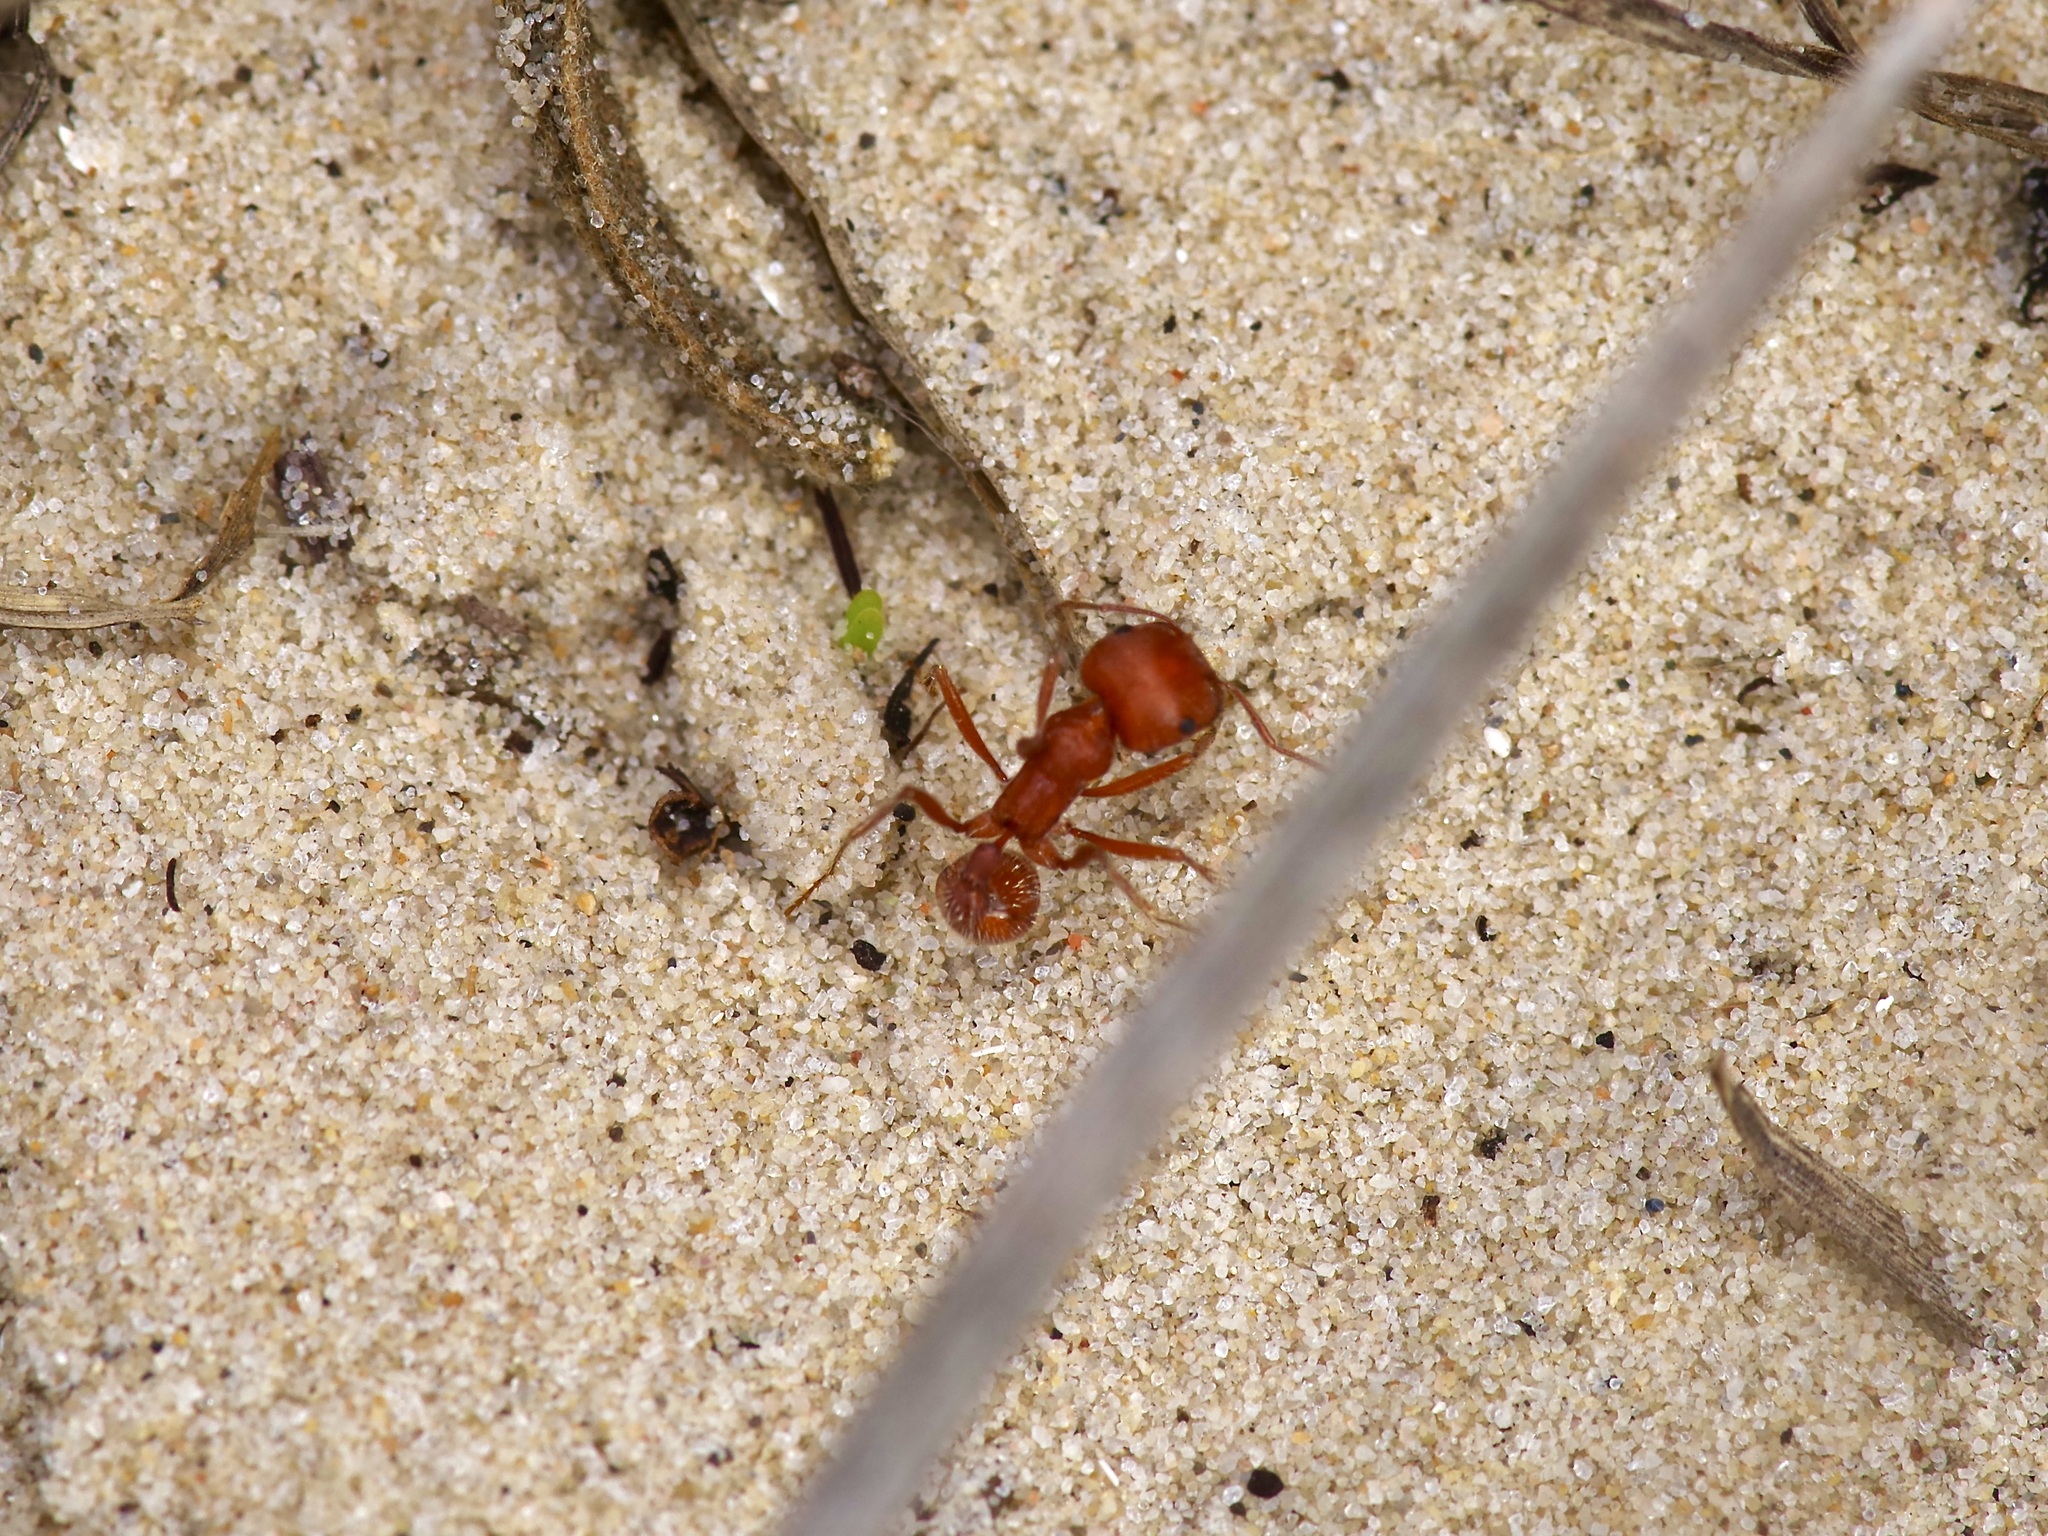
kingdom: Animalia
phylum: Arthropoda
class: Insecta
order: Hymenoptera
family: Formicidae
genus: Pogonomyrmex
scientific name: Pogonomyrmex comanche
